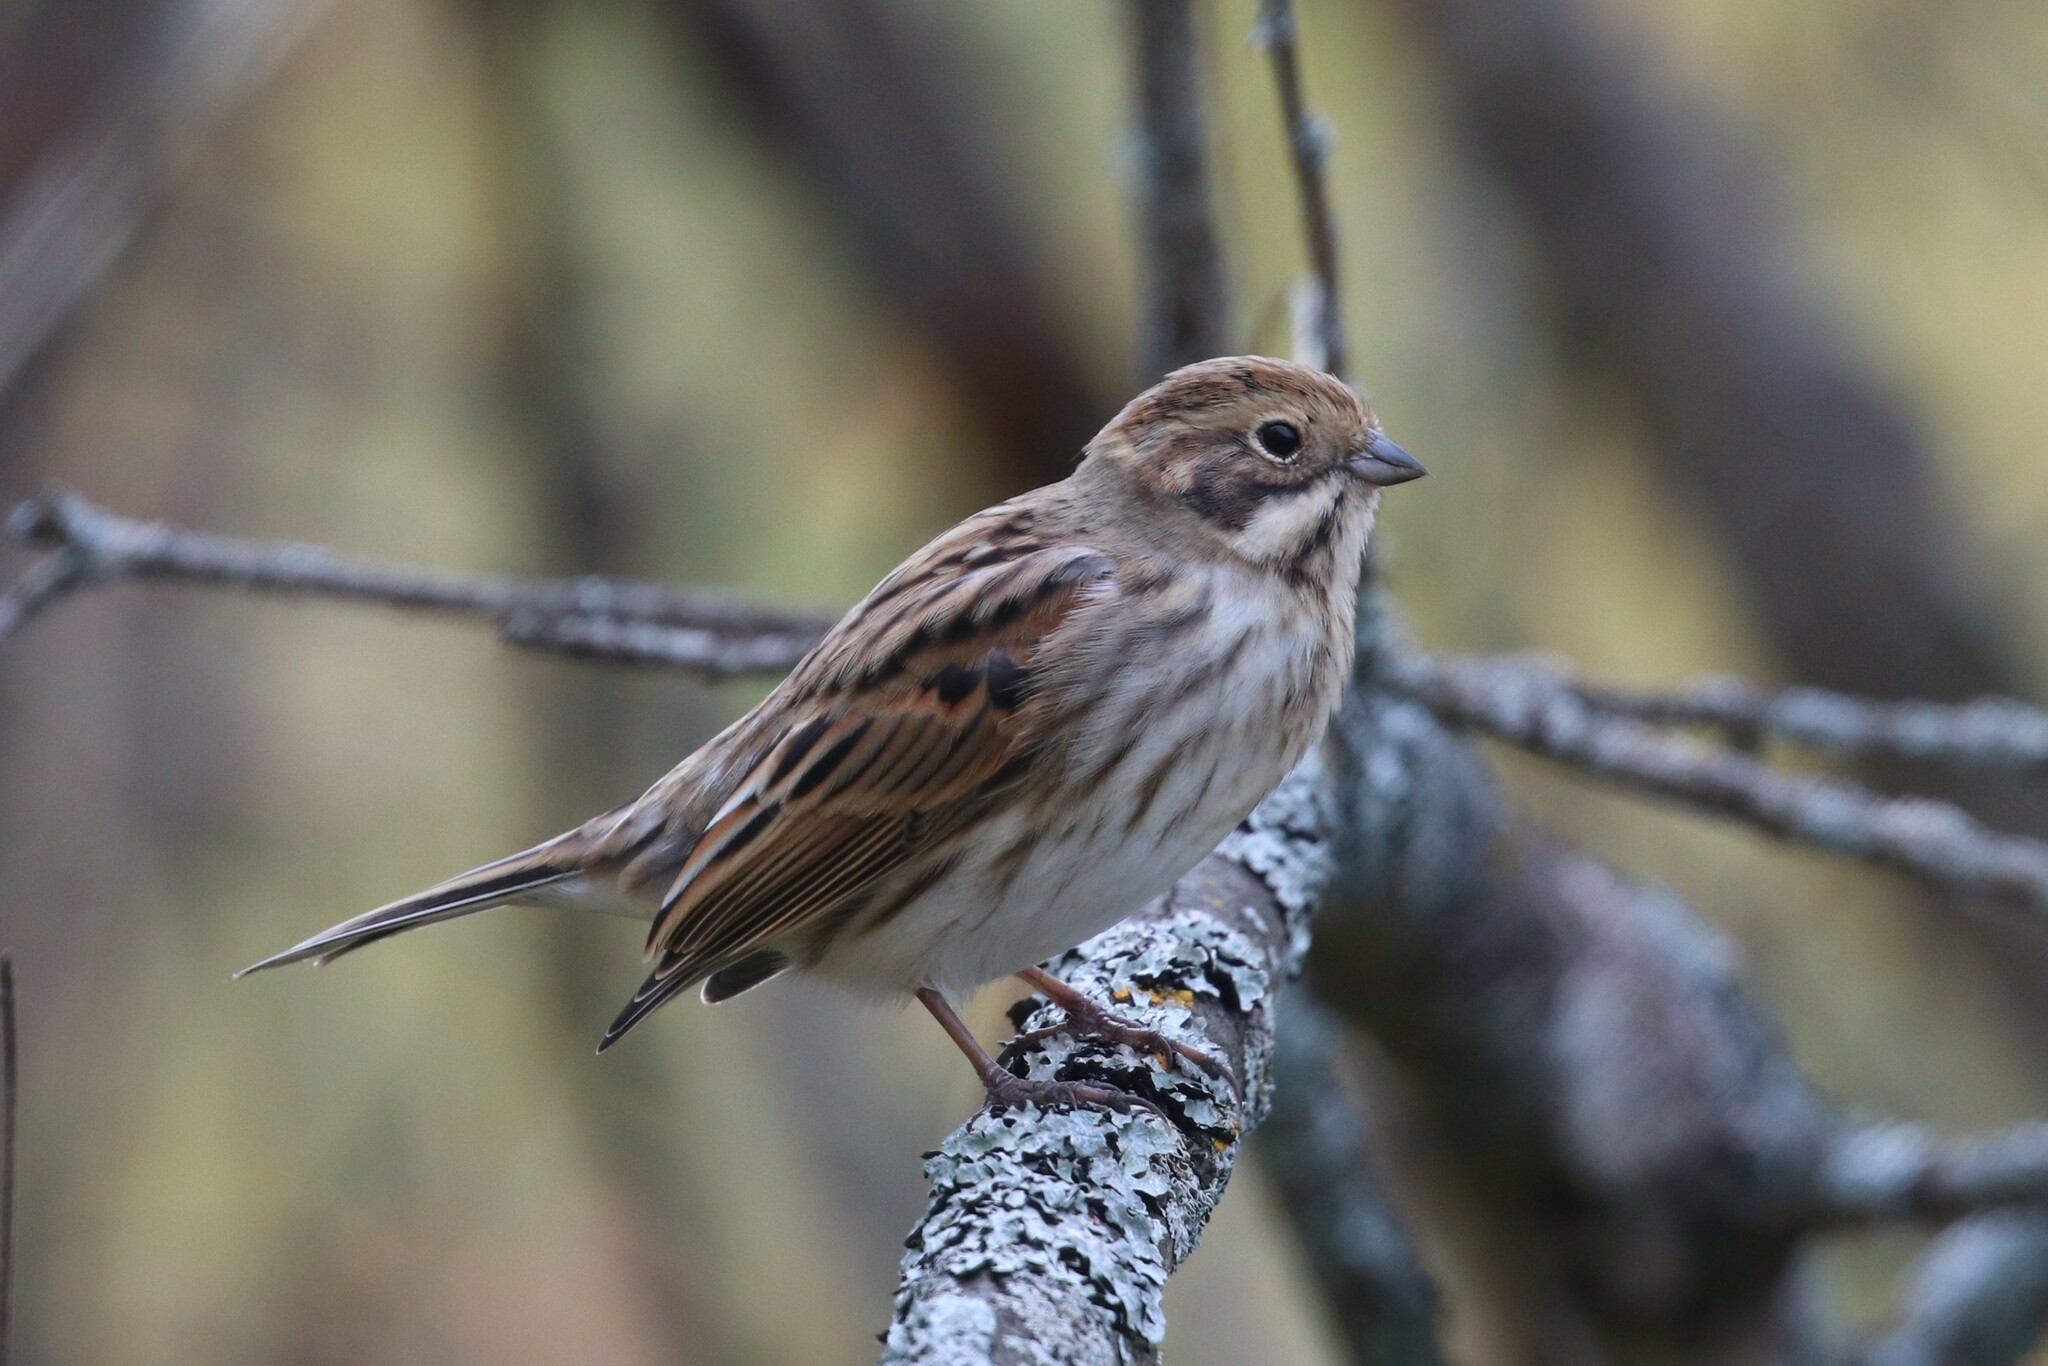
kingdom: Animalia
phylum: Chordata
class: Aves
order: Passeriformes
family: Emberizidae
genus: Emberiza
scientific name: Emberiza schoeniclus
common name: Reed bunting
